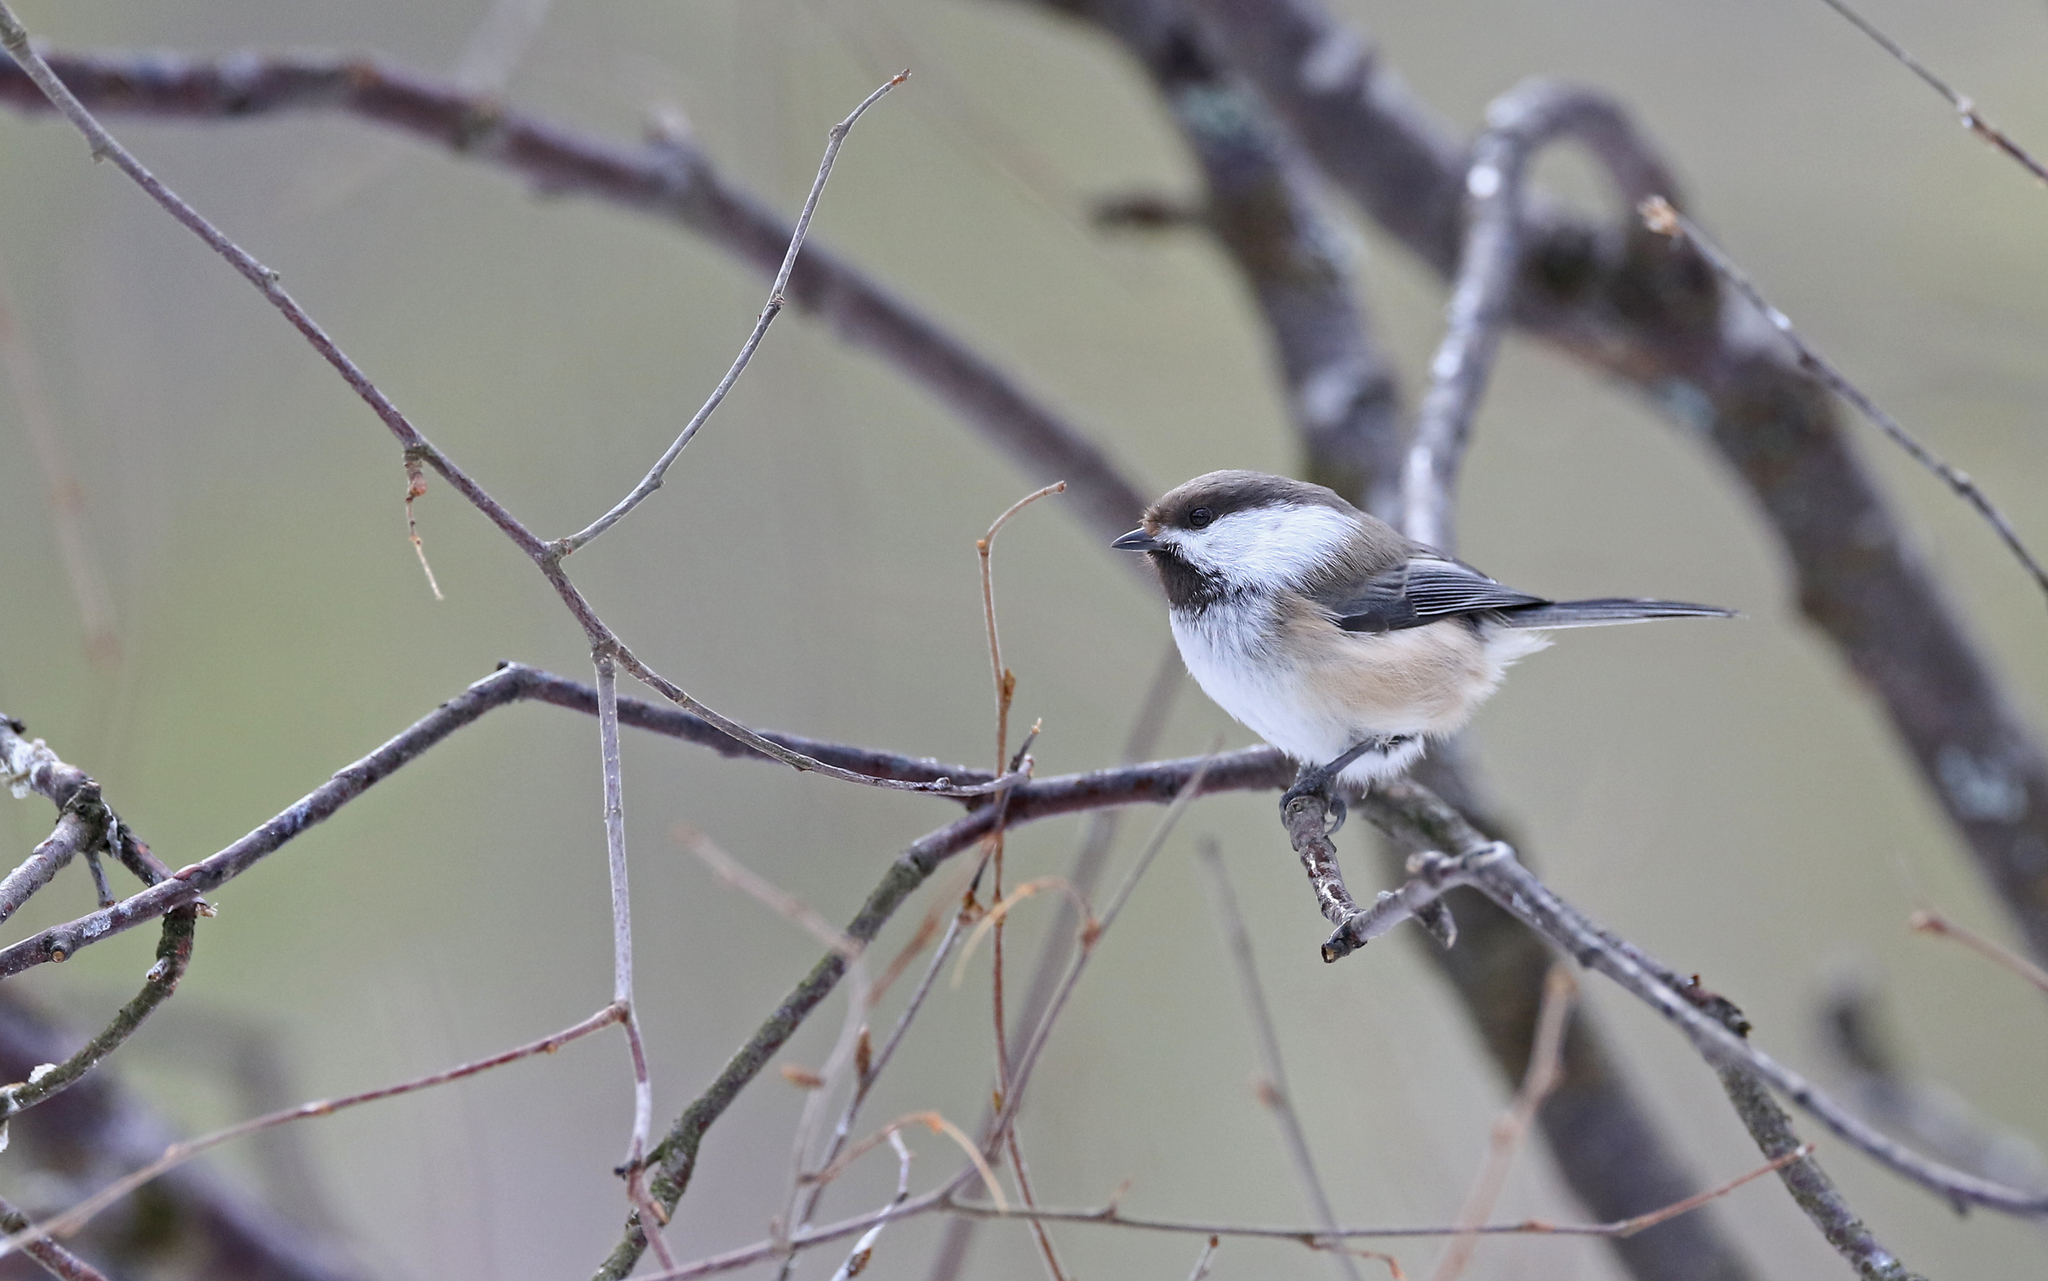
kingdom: Animalia
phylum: Chordata
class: Aves
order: Passeriformes
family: Paridae
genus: Poecile
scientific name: Poecile cinctus
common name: Gray-headed chickadee
